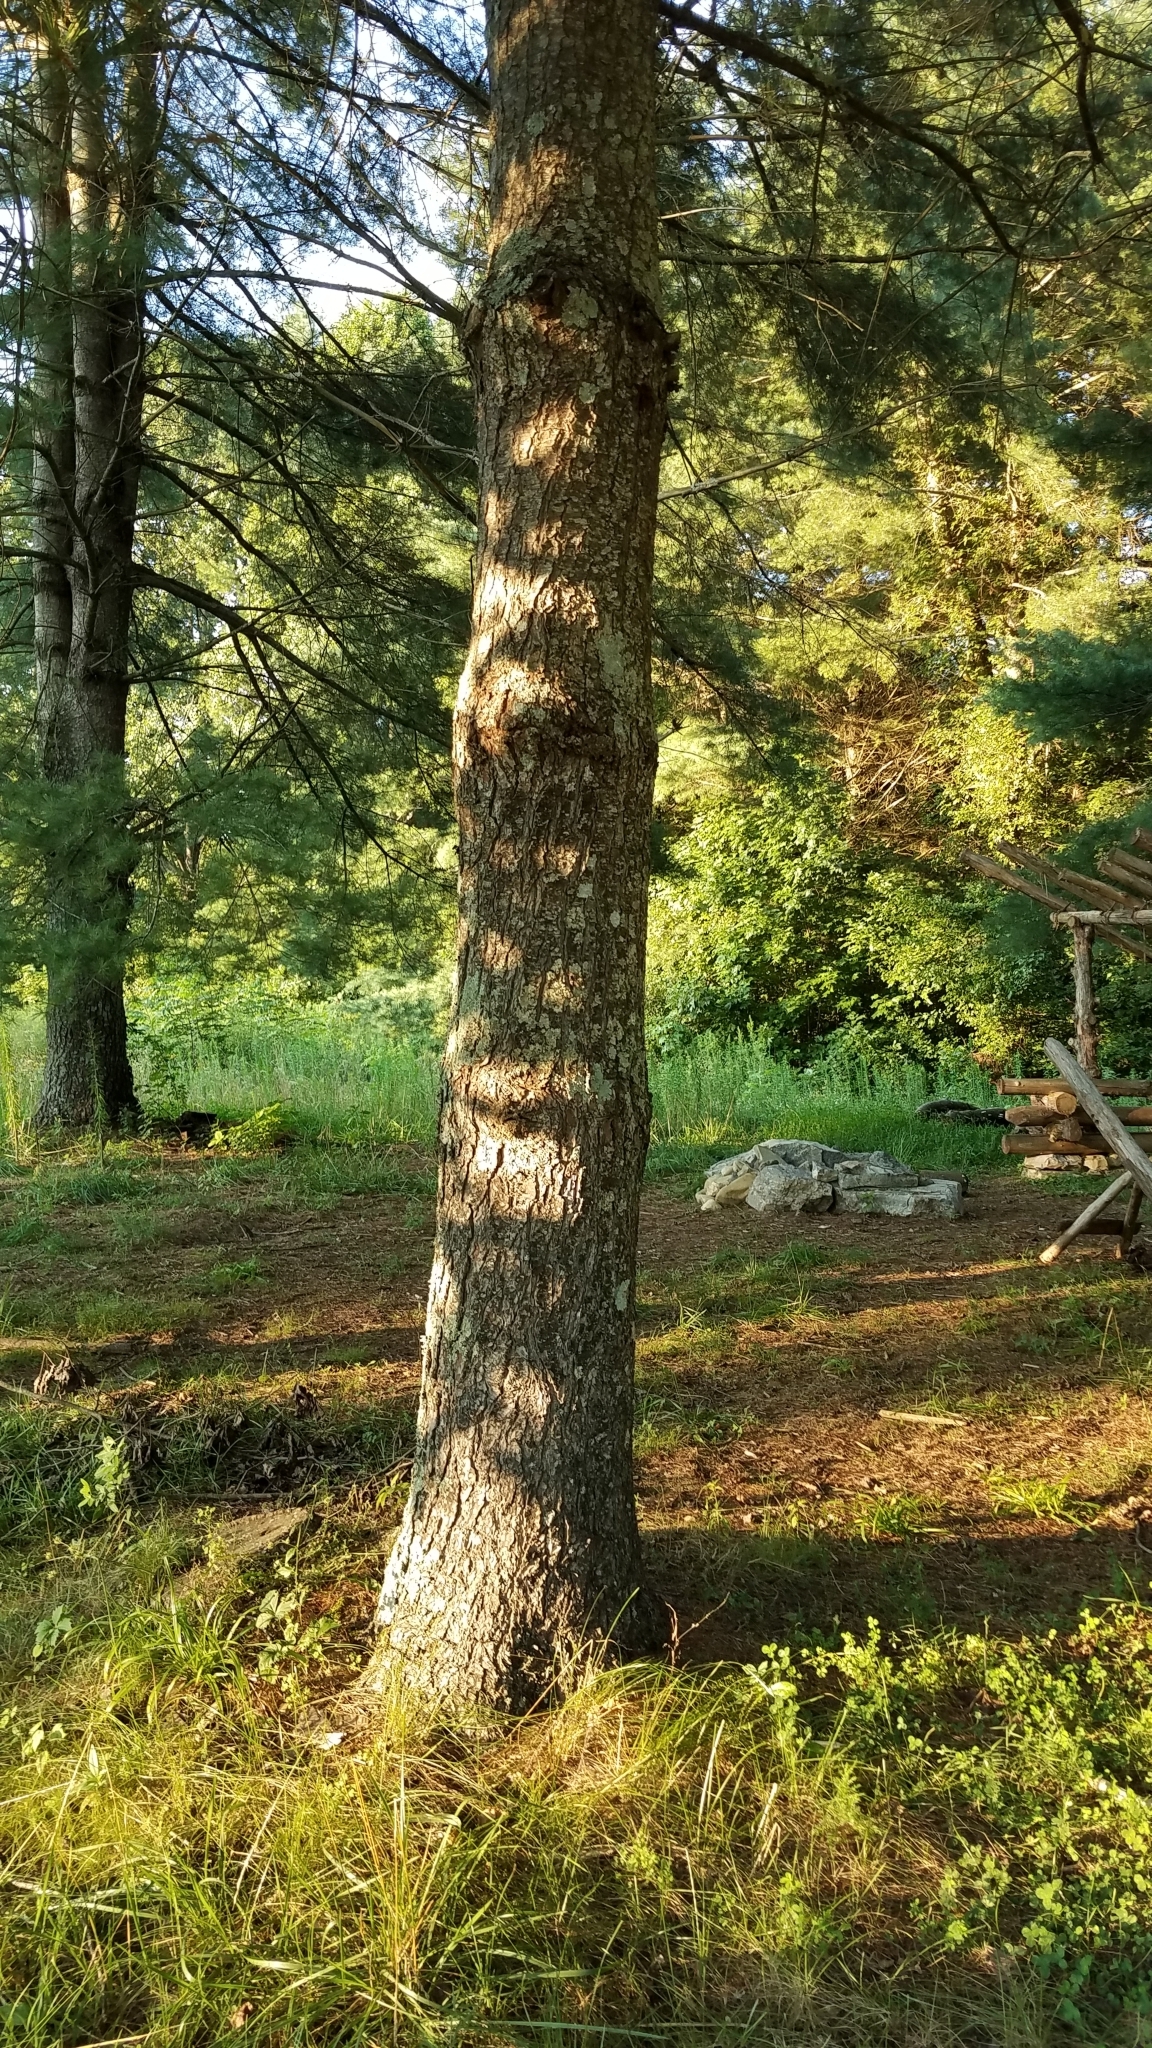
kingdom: Plantae
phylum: Tracheophyta
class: Pinopsida
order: Pinales
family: Pinaceae
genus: Pinus
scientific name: Pinus strobus
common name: Weymouth pine
